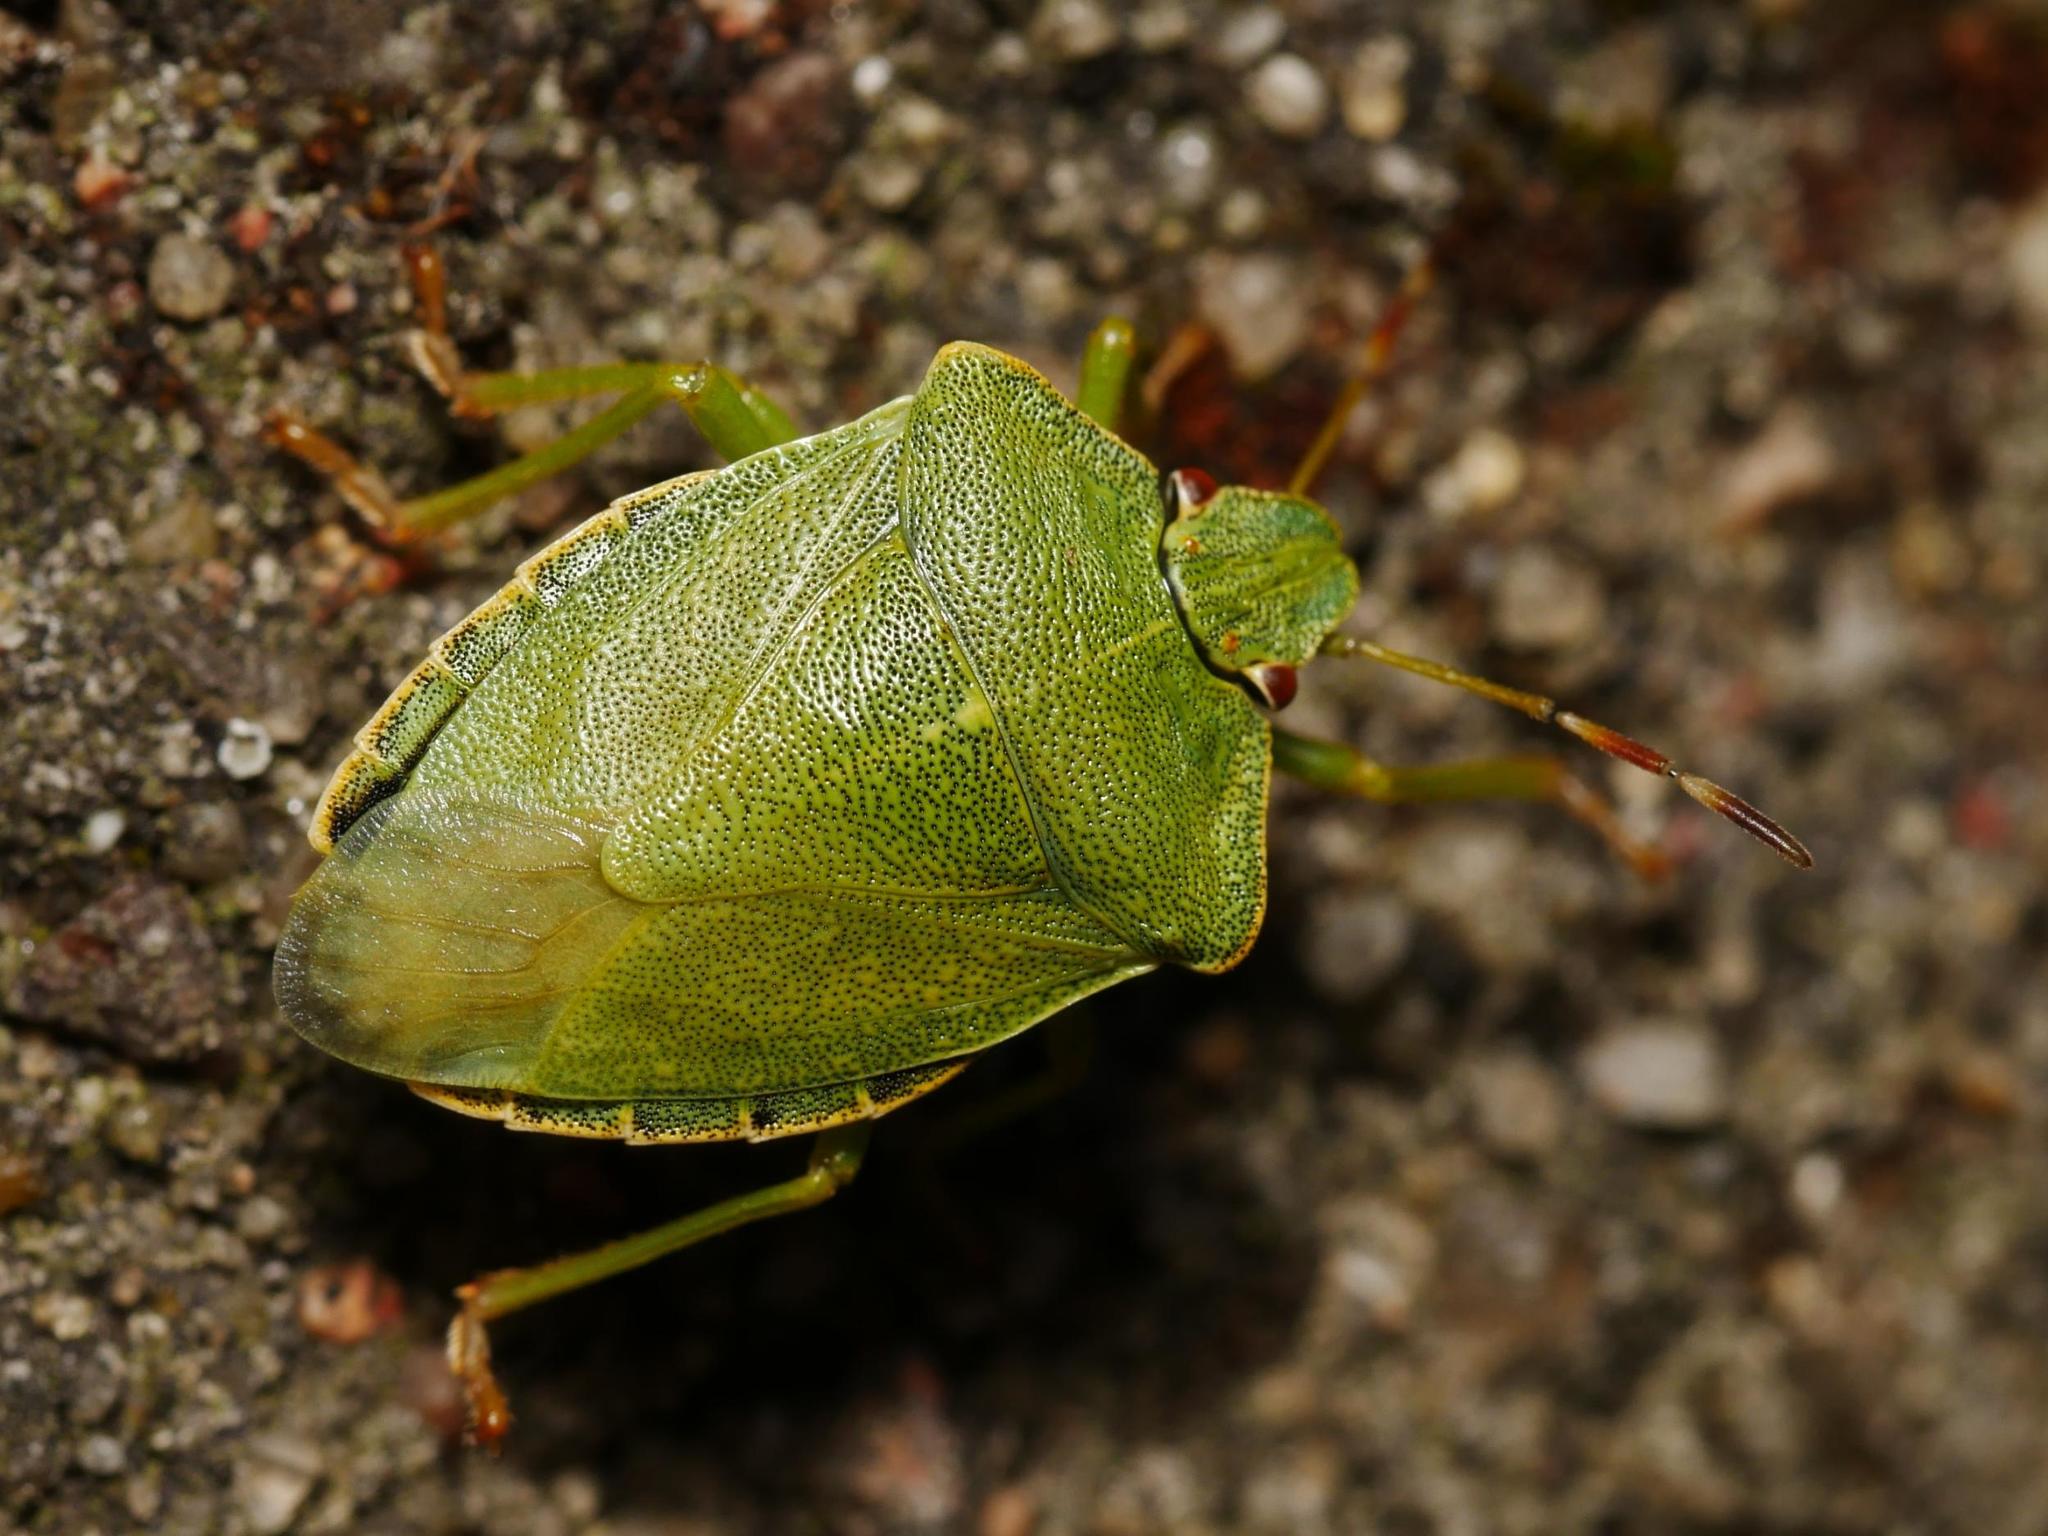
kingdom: Animalia
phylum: Arthropoda
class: Insecta
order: Hemiptera
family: Pentatomidae
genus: Palomena
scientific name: Palomena prasina
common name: Green shieldbug
